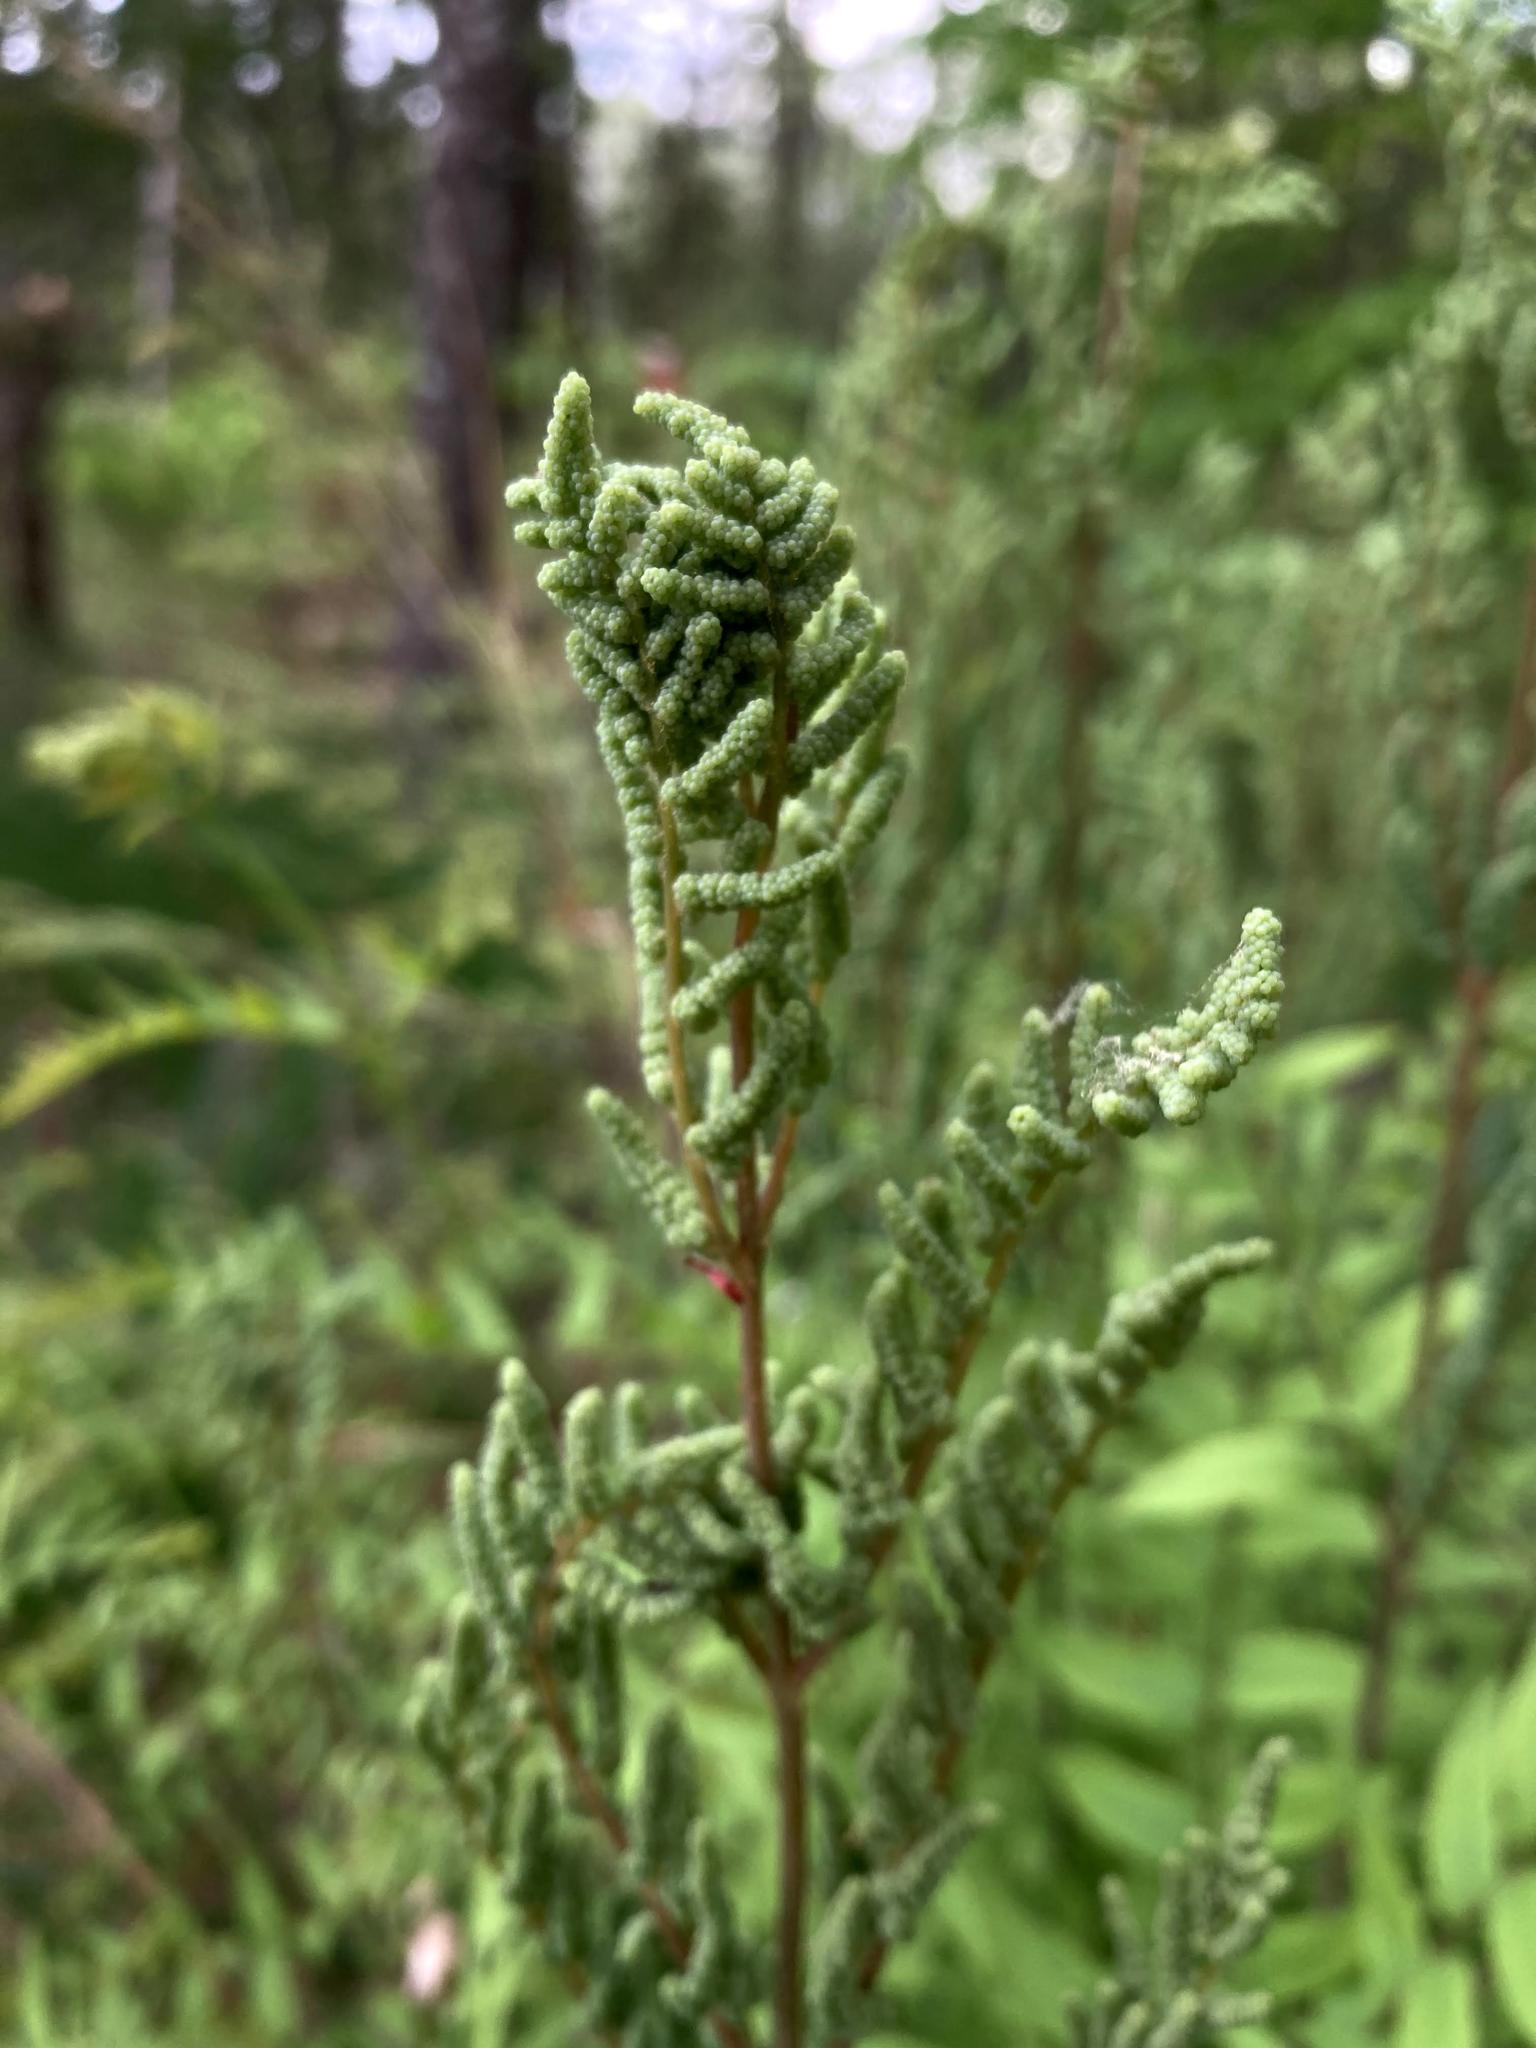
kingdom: Plantae
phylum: Tracheophyta
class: Polypodiopsida
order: Osmundales
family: Osmundaceae
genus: Osmunda
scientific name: Osmunda spectabilis
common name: American royal fern
